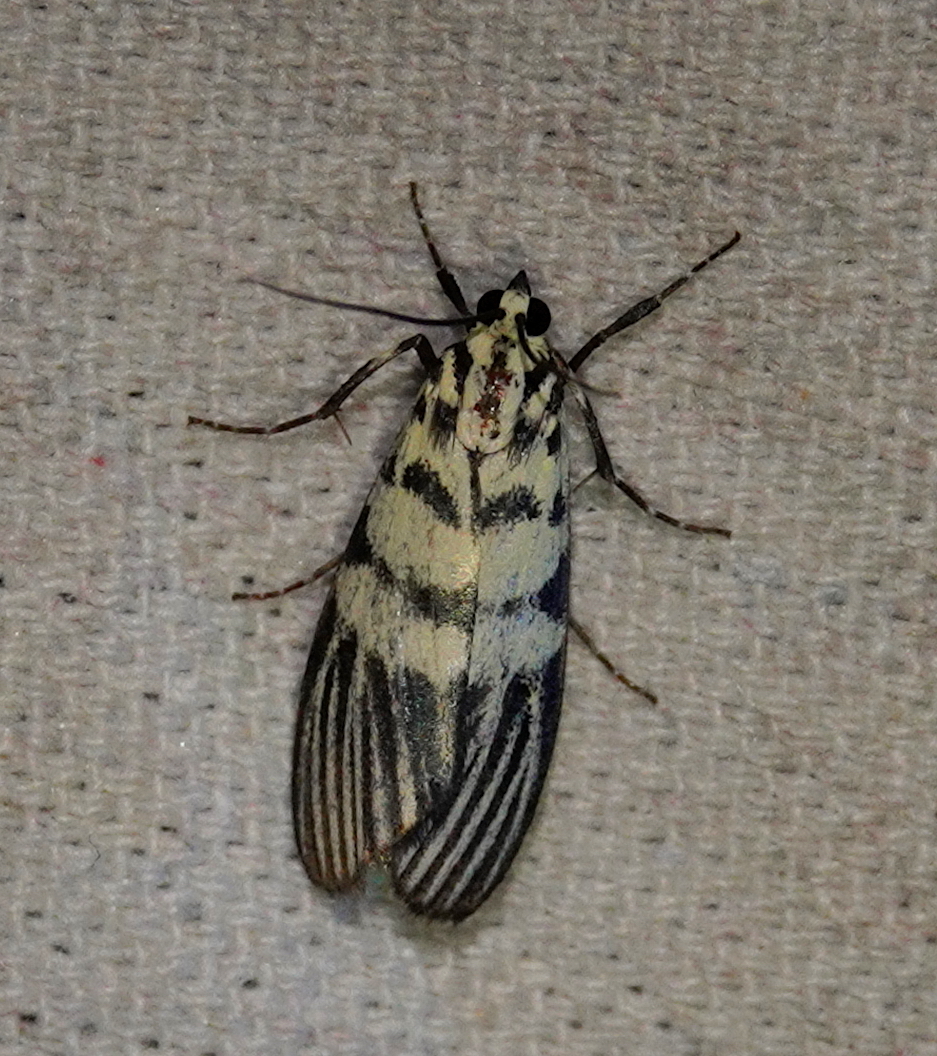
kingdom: Animalia
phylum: Arthropoda
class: Insecta
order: Lepidoptera
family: Crambidae
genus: Heortia
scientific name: Heortia vitessoides
